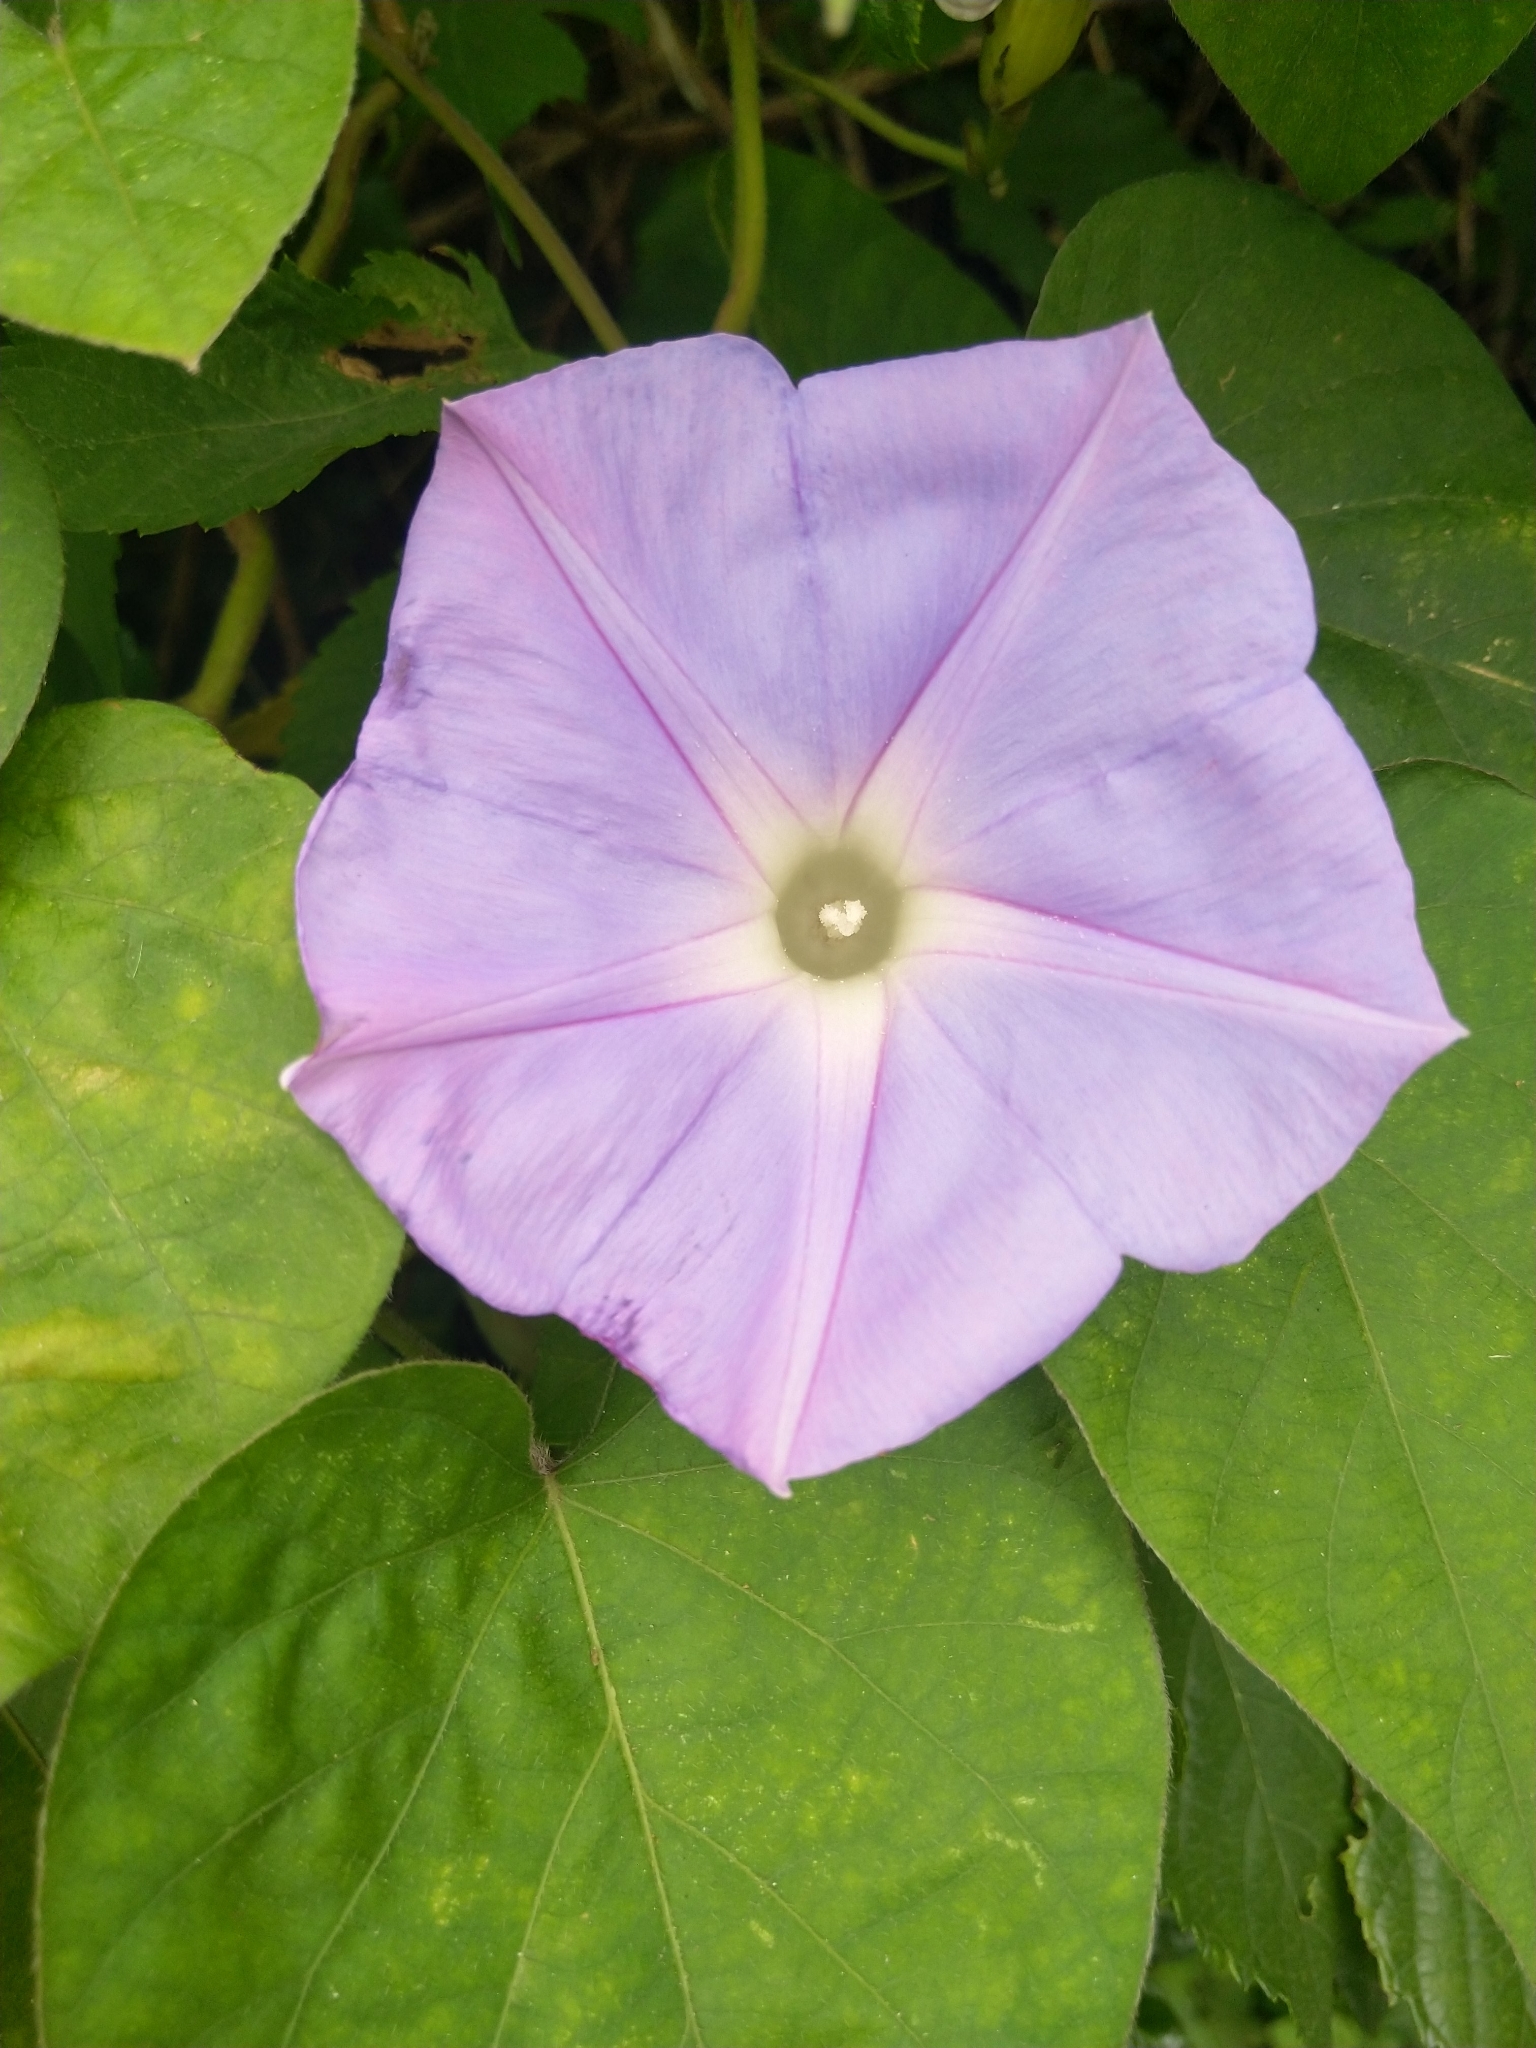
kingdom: Plantae
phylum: Tracheophyta
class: Magnoliopsida
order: Solanales
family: Convolvulaceae
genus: Ipomoea
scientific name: Ipomoea indica
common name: Blue dawnflower
